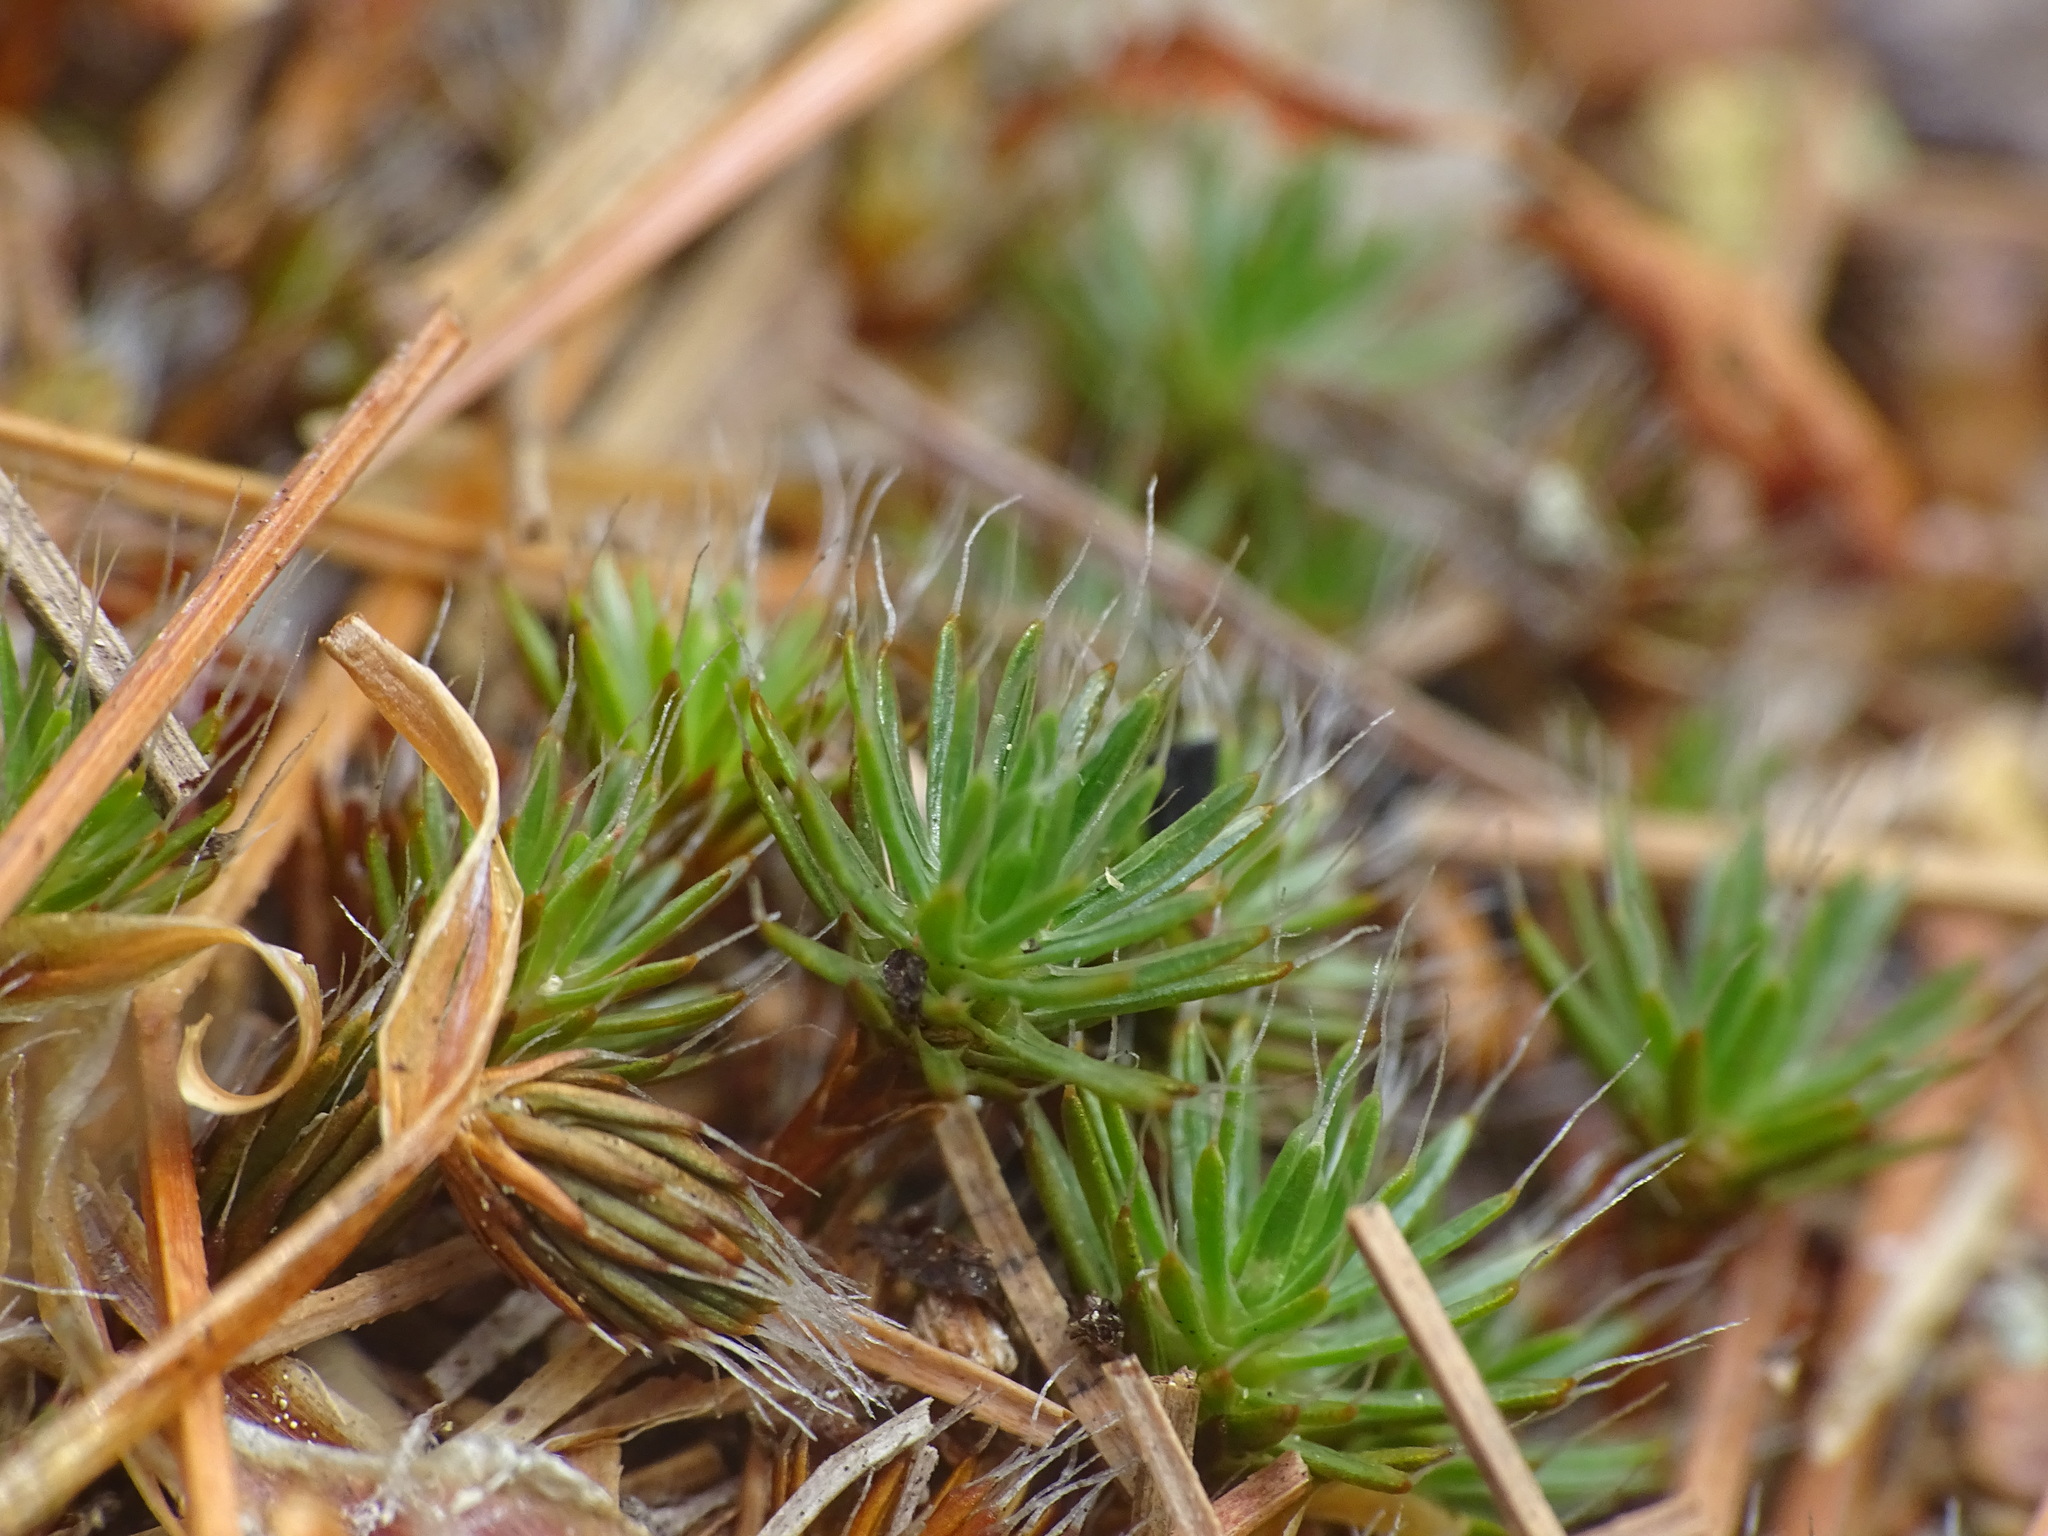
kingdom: Plantae
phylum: Bryophyta
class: Polytrichopsida
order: Polytrichales
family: Polytrichaceae
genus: Polytrichum
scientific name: Polytrichum piliferum
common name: Bristly haircap
